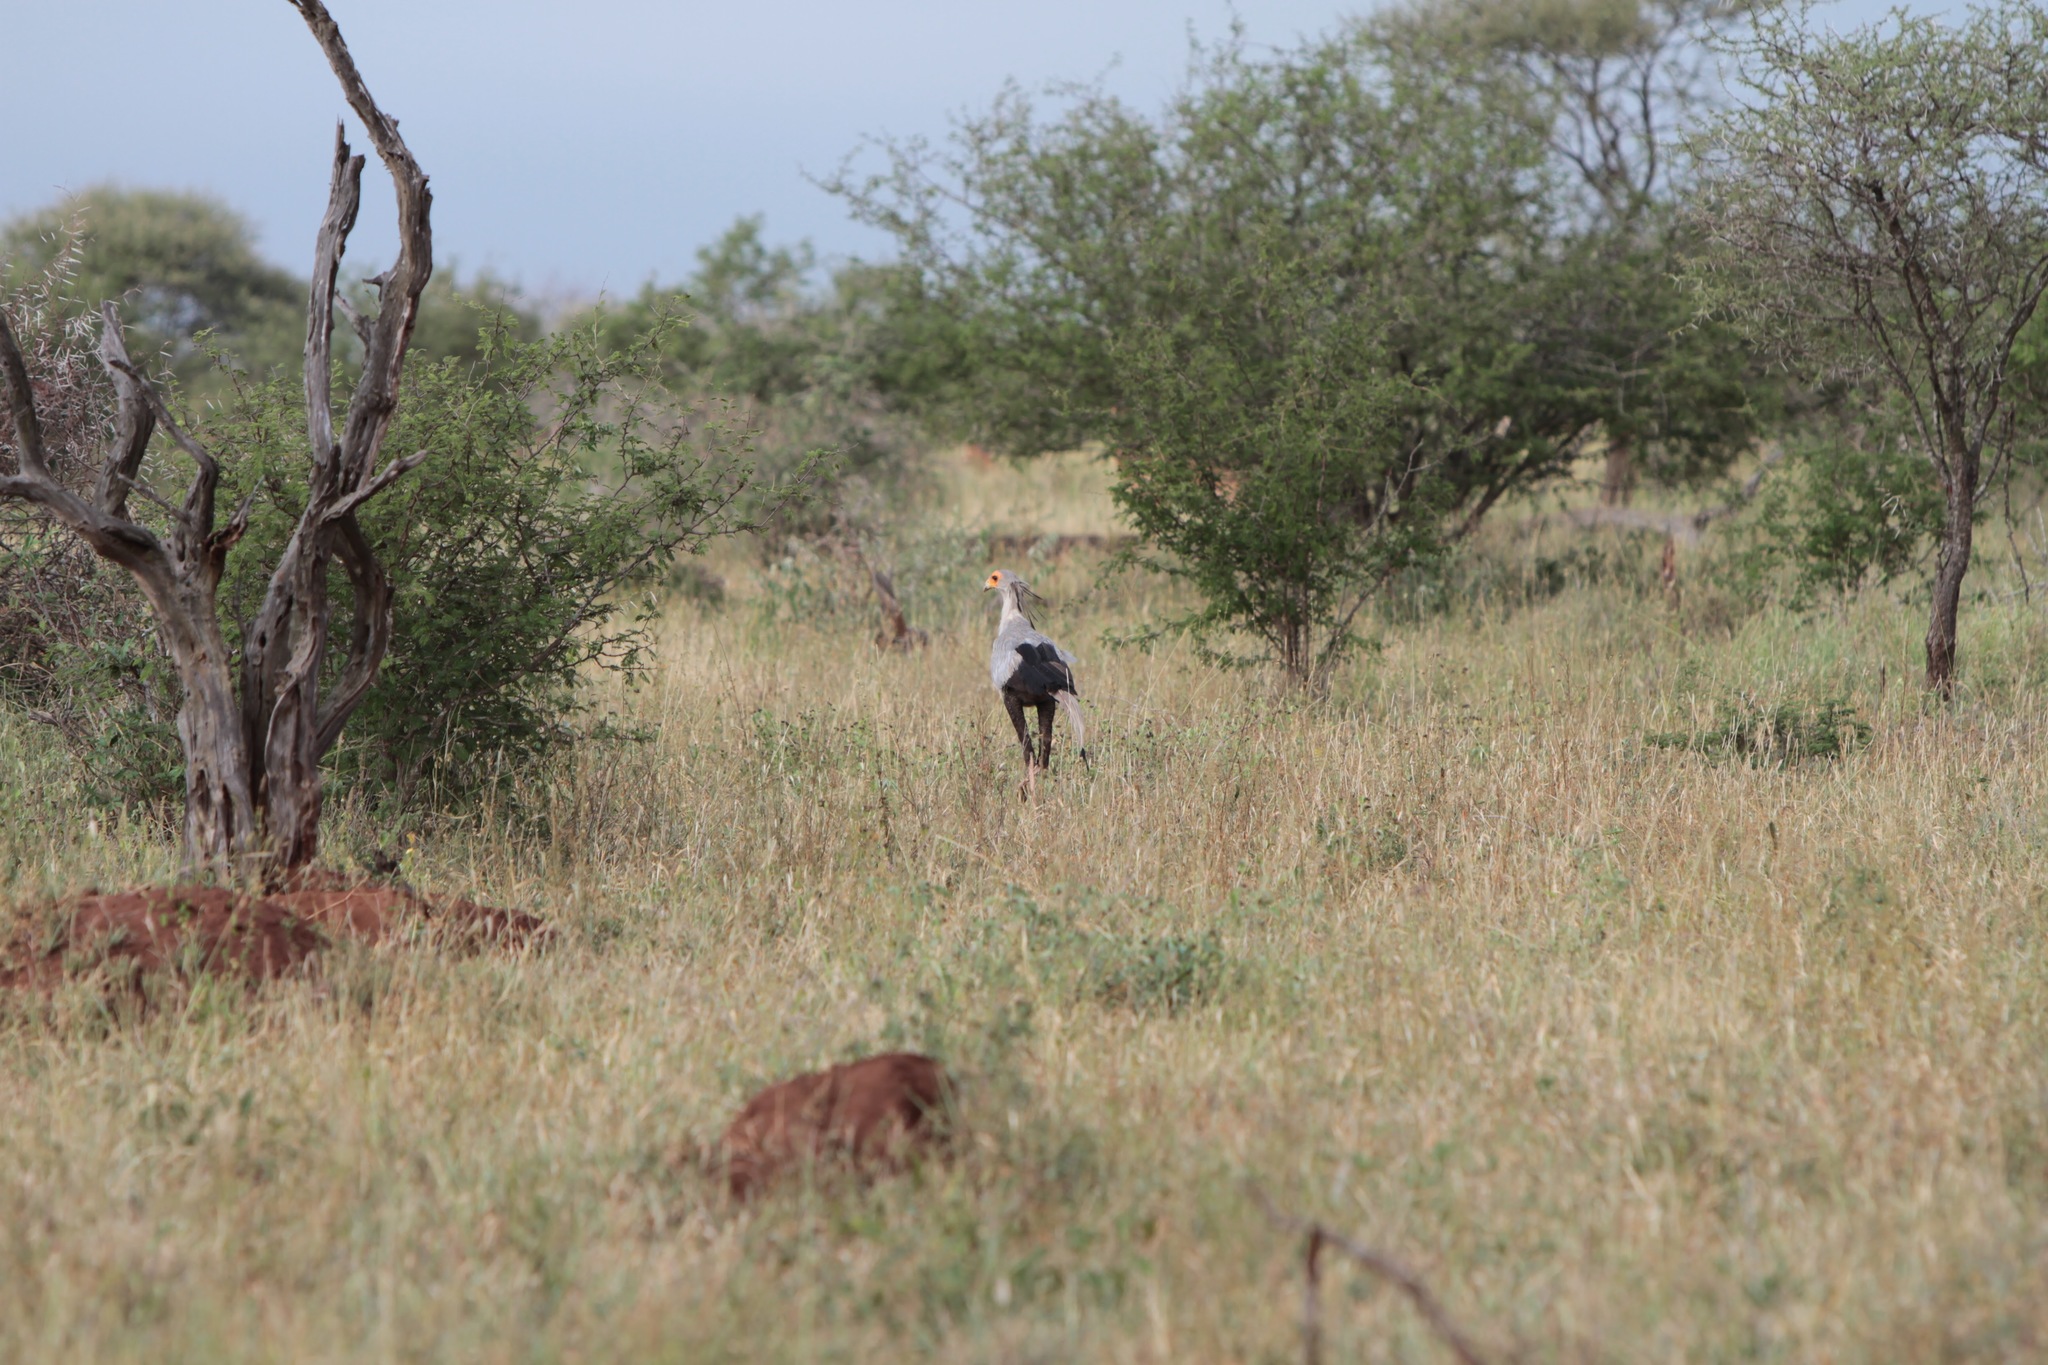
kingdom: Animalia
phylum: Chordata
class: Aves
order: Accipitriformes
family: Sagittariidae
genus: Sagittarius
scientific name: Sagittarius serpentarius
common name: Secretarybird
